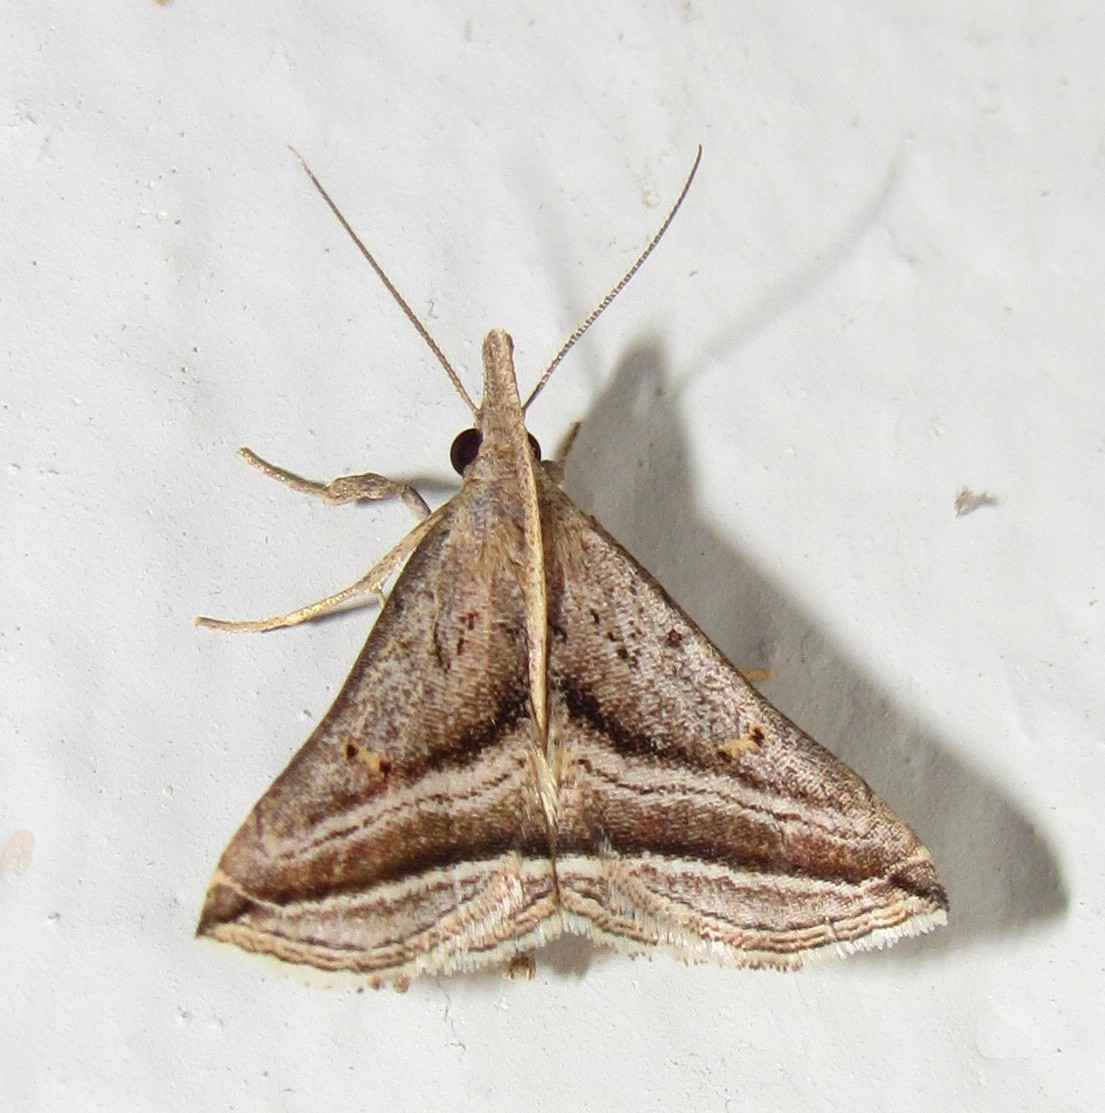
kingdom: Animalia
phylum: Arthropoda
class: Insecta
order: Lepidoptera
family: Erebidae
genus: Charmodia
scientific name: Charmodia vectis
